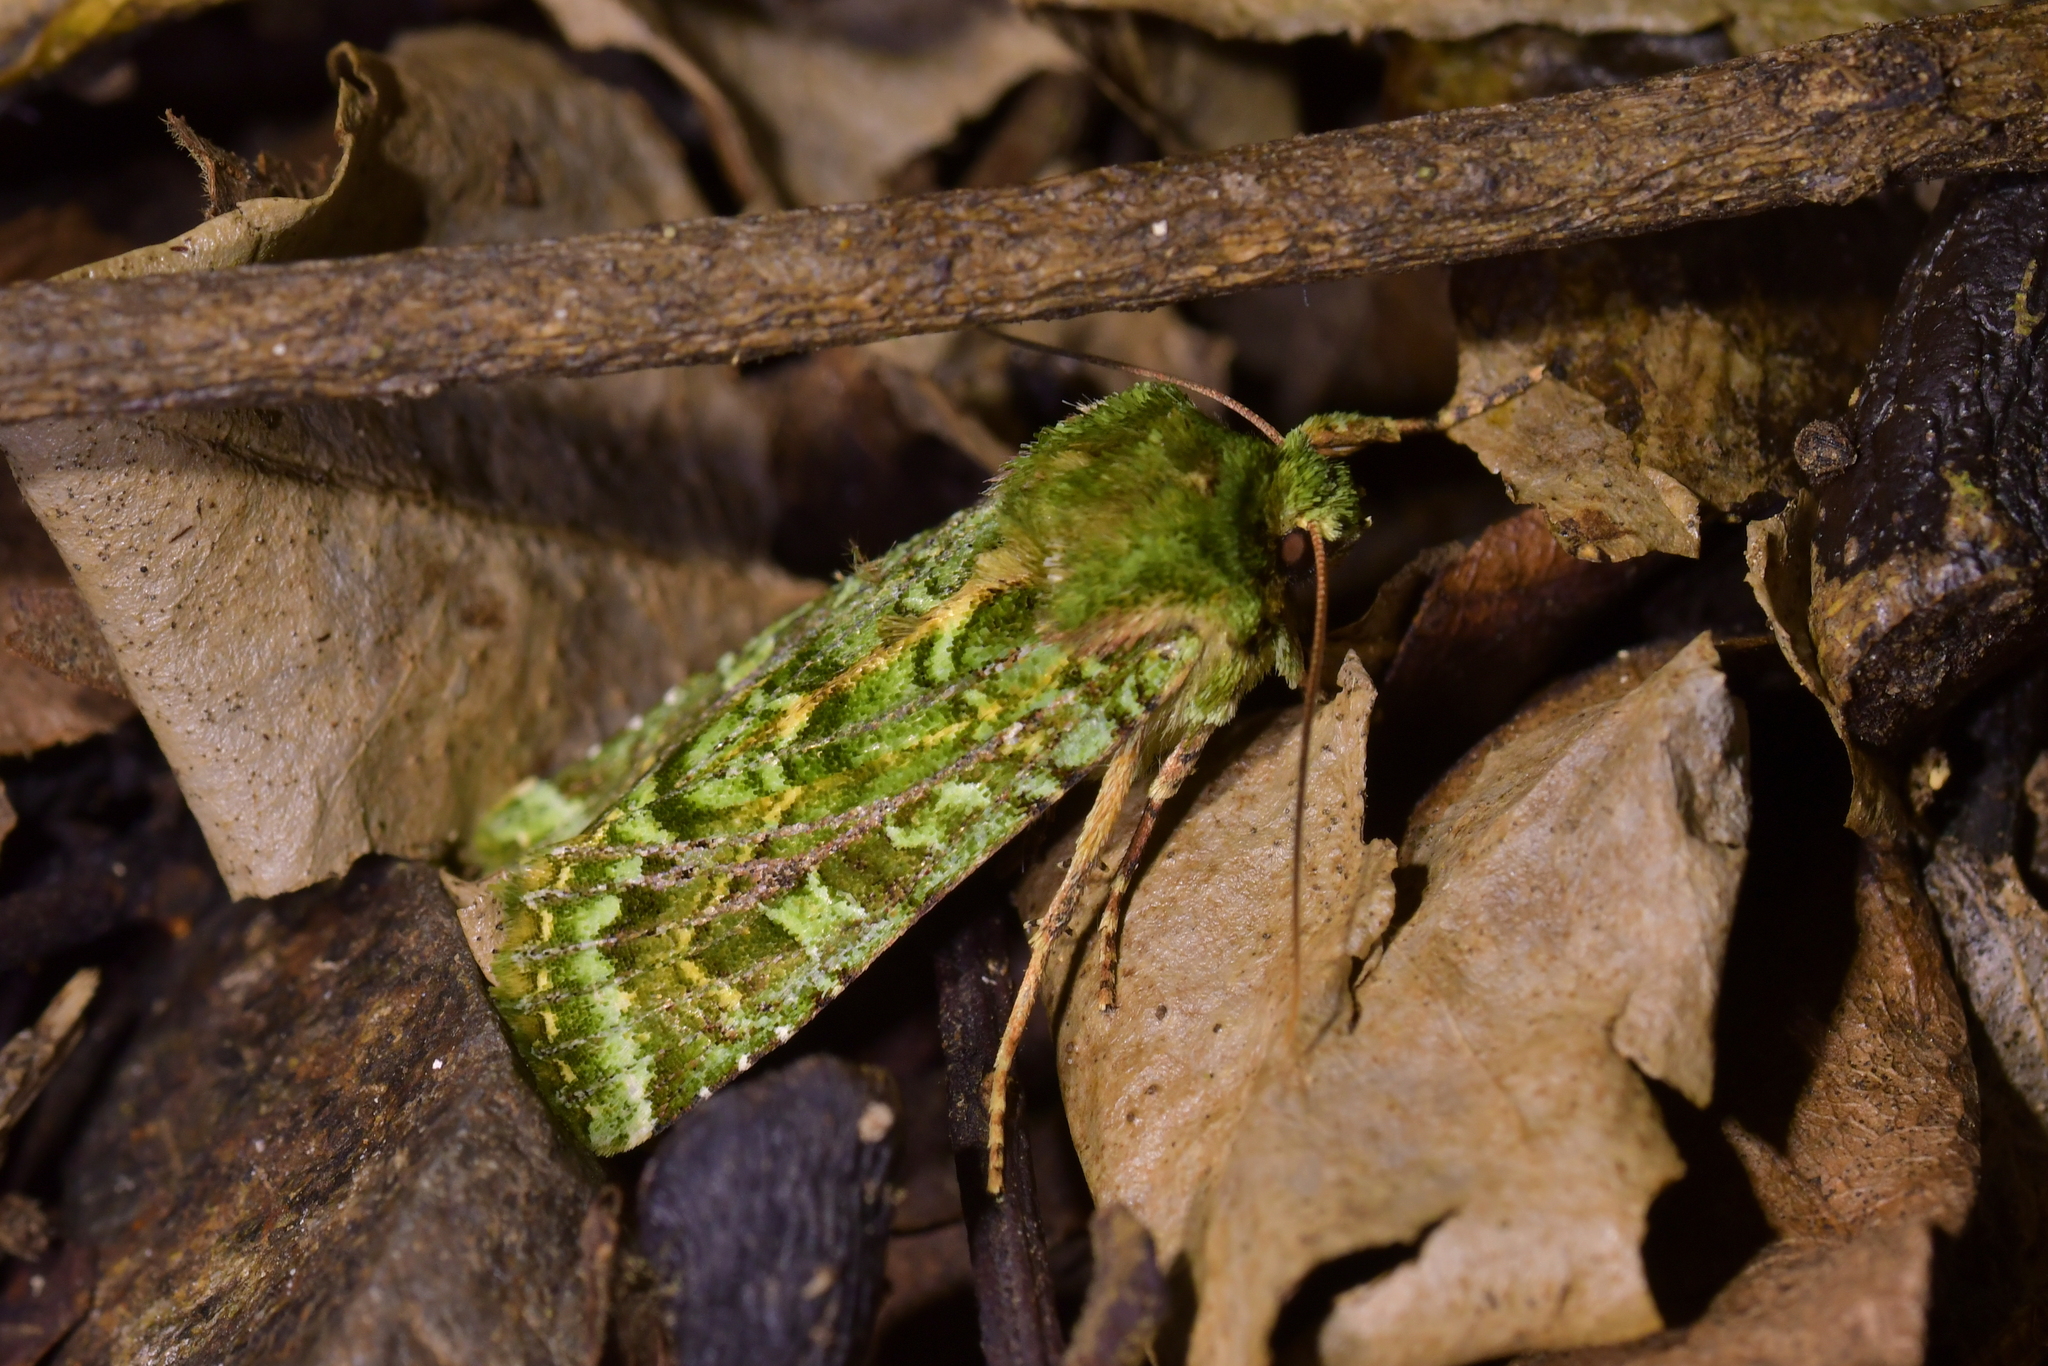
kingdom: Animalia
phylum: Arthropoda
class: Insecta
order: Lepidoptera
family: Noctuidae
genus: Feredayia
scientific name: Feredayia grammosa
